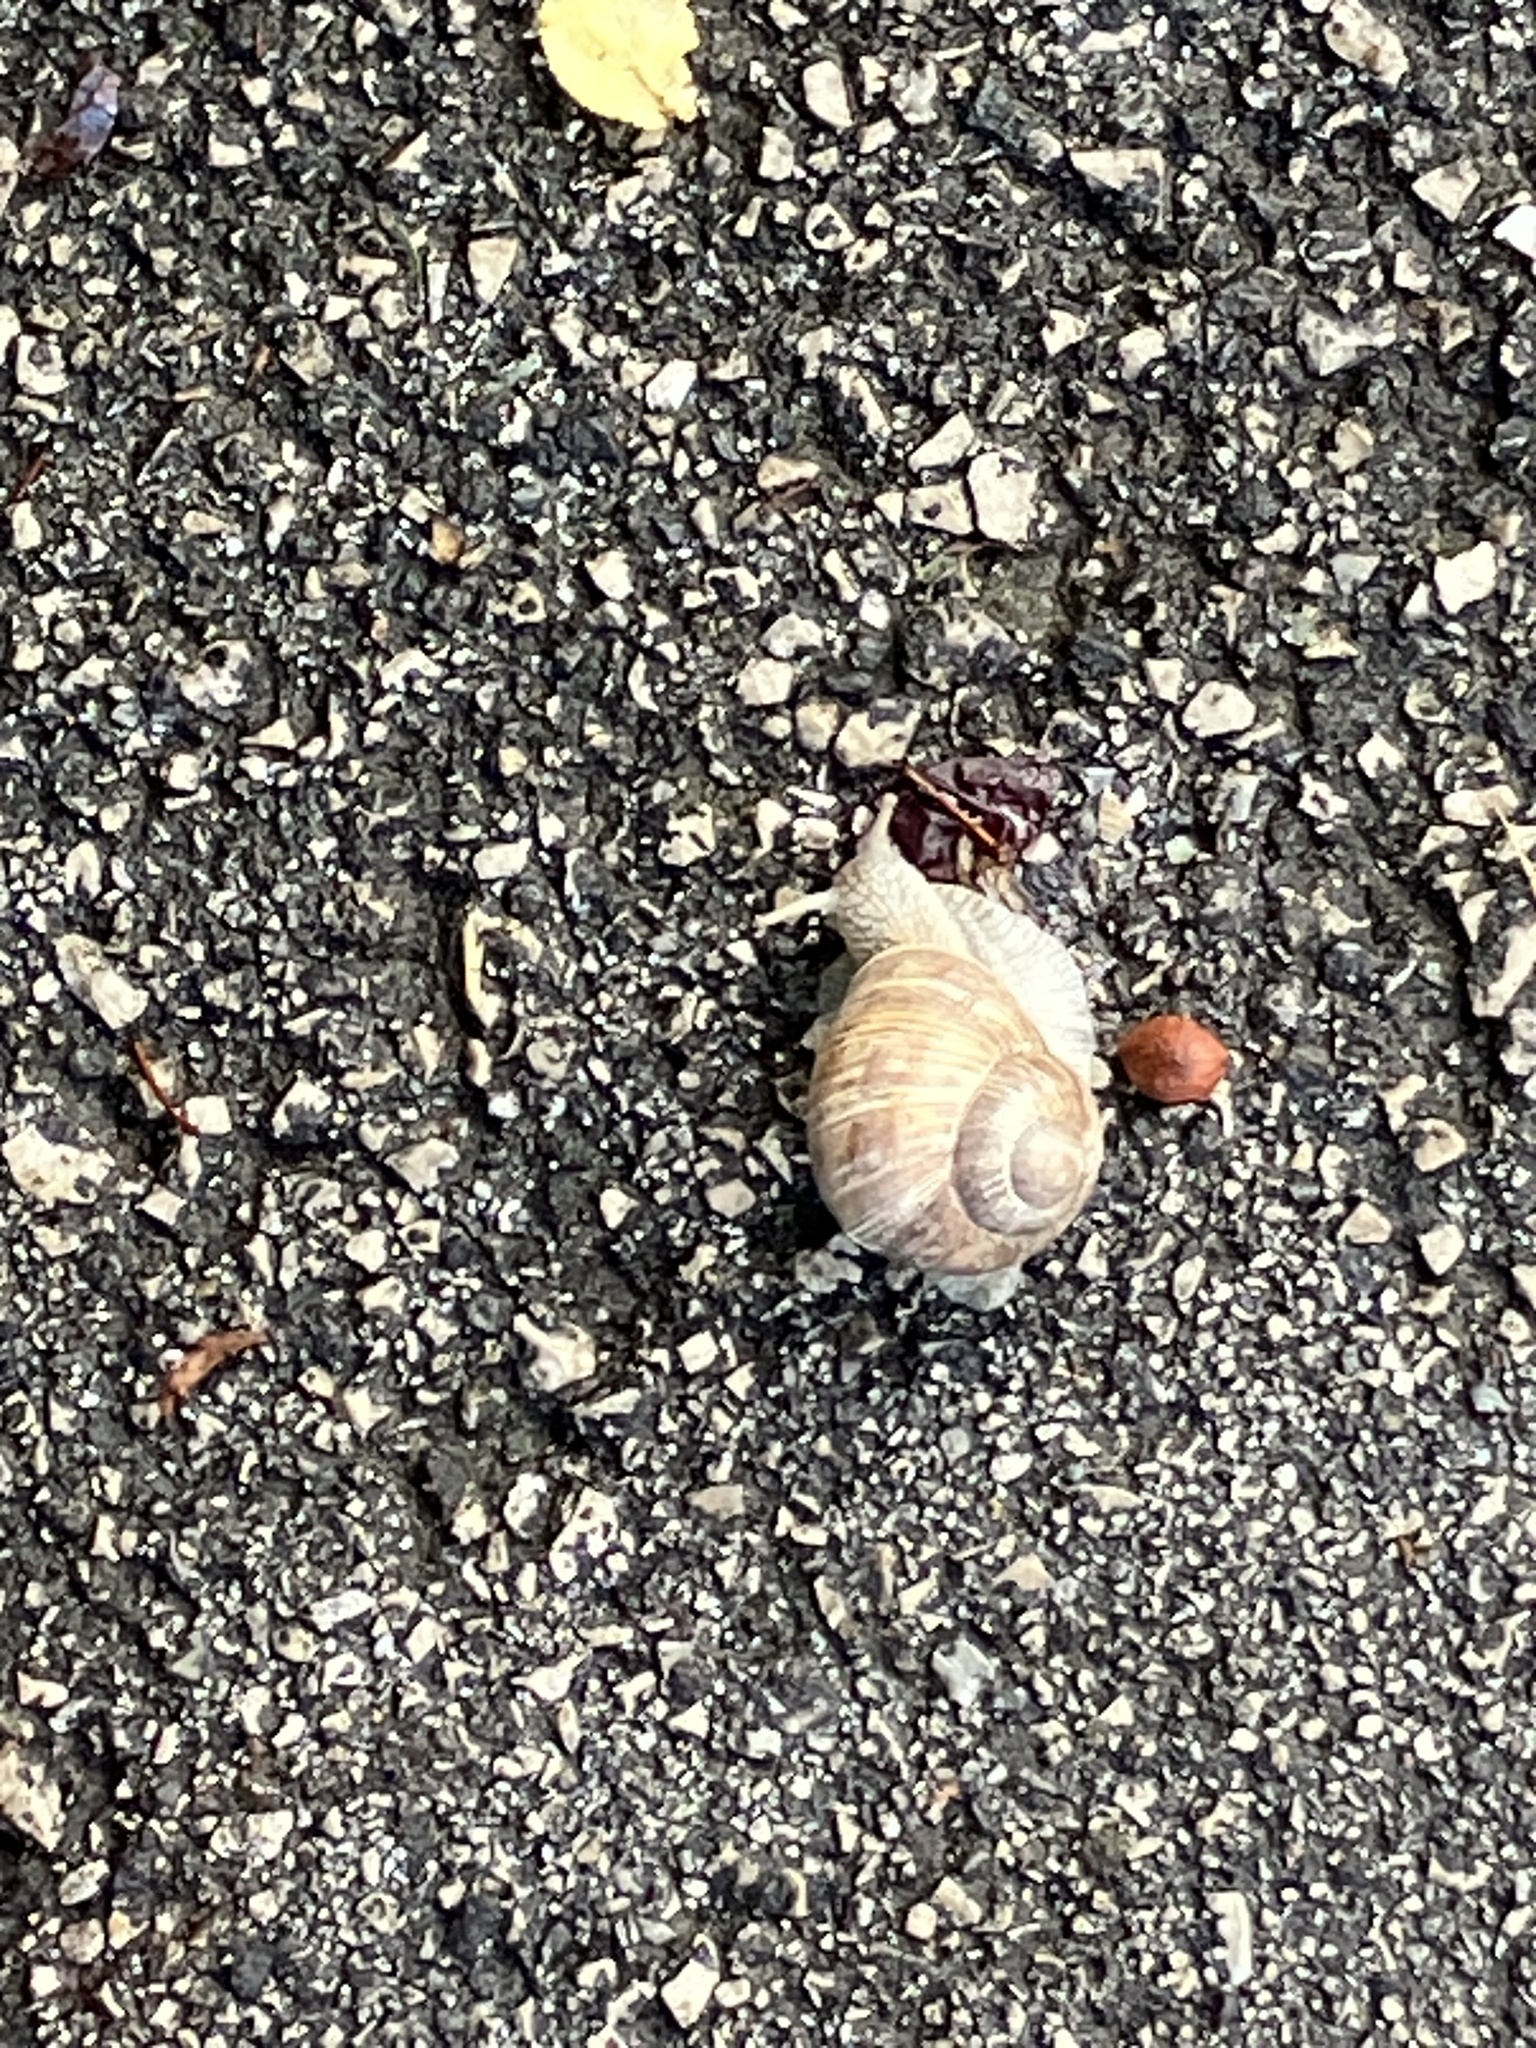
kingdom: Animalia
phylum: Mollusca
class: Gastropoda
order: Stylommatophora
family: Helicidae
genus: Helix
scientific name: Helix pomatia
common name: Roman snail
